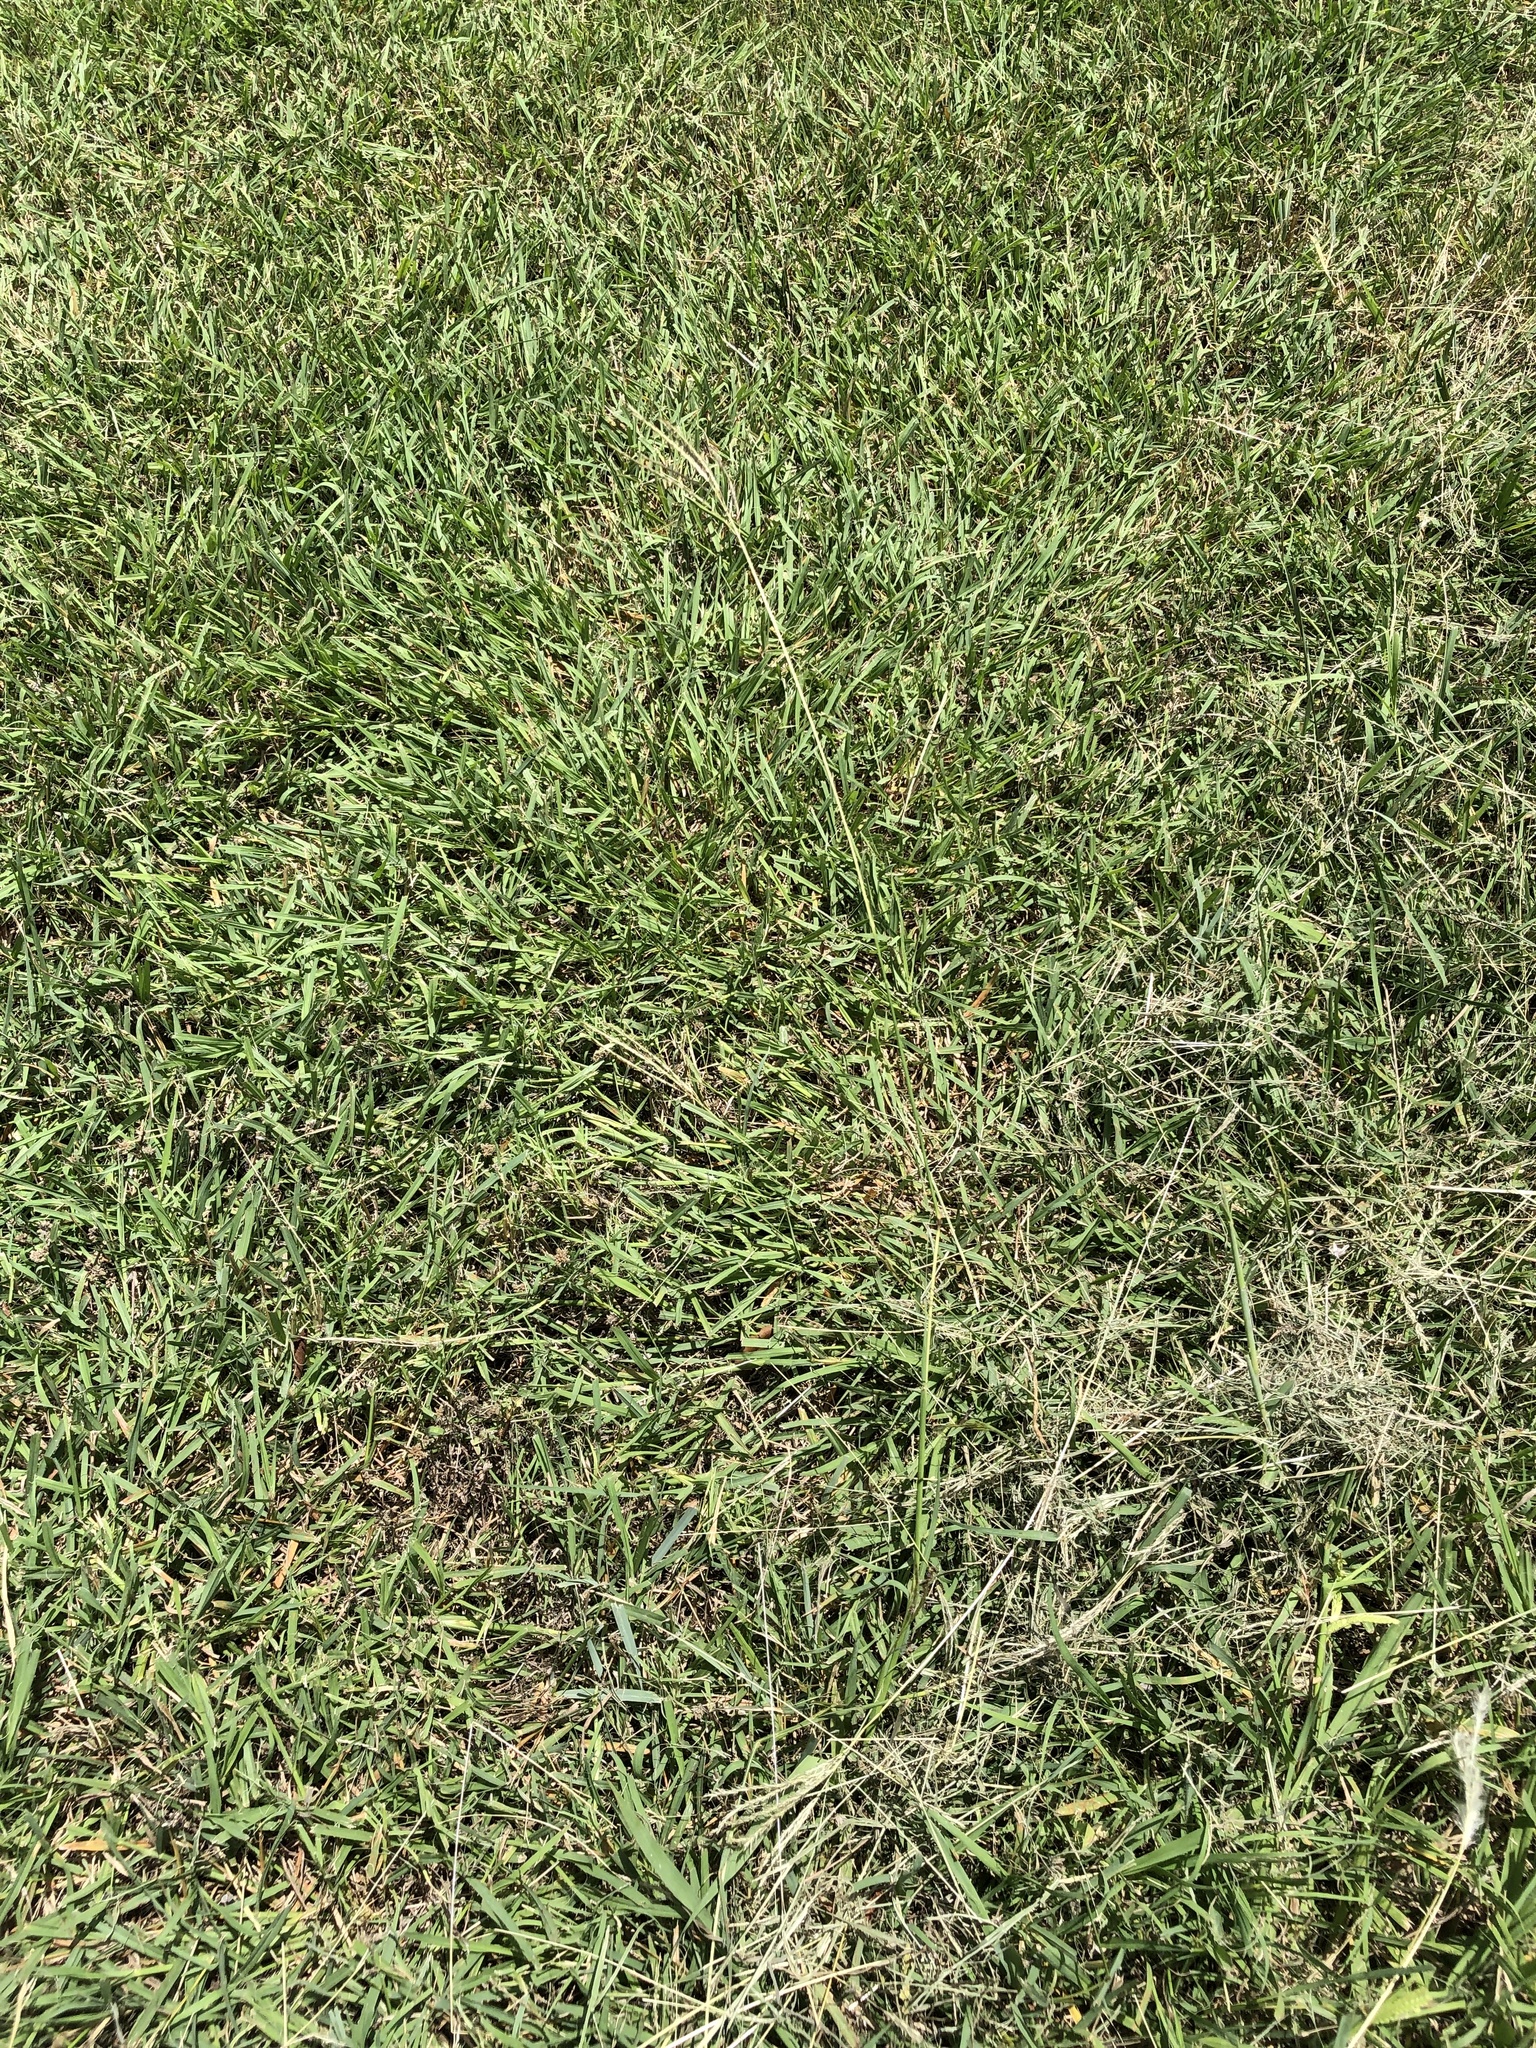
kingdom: Plantae
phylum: Tracheophyta
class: Liliopsida
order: Poales
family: Poaceae
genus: Bothriochloa
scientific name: Bothriochloa ischaemum
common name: Yellow bluestem
